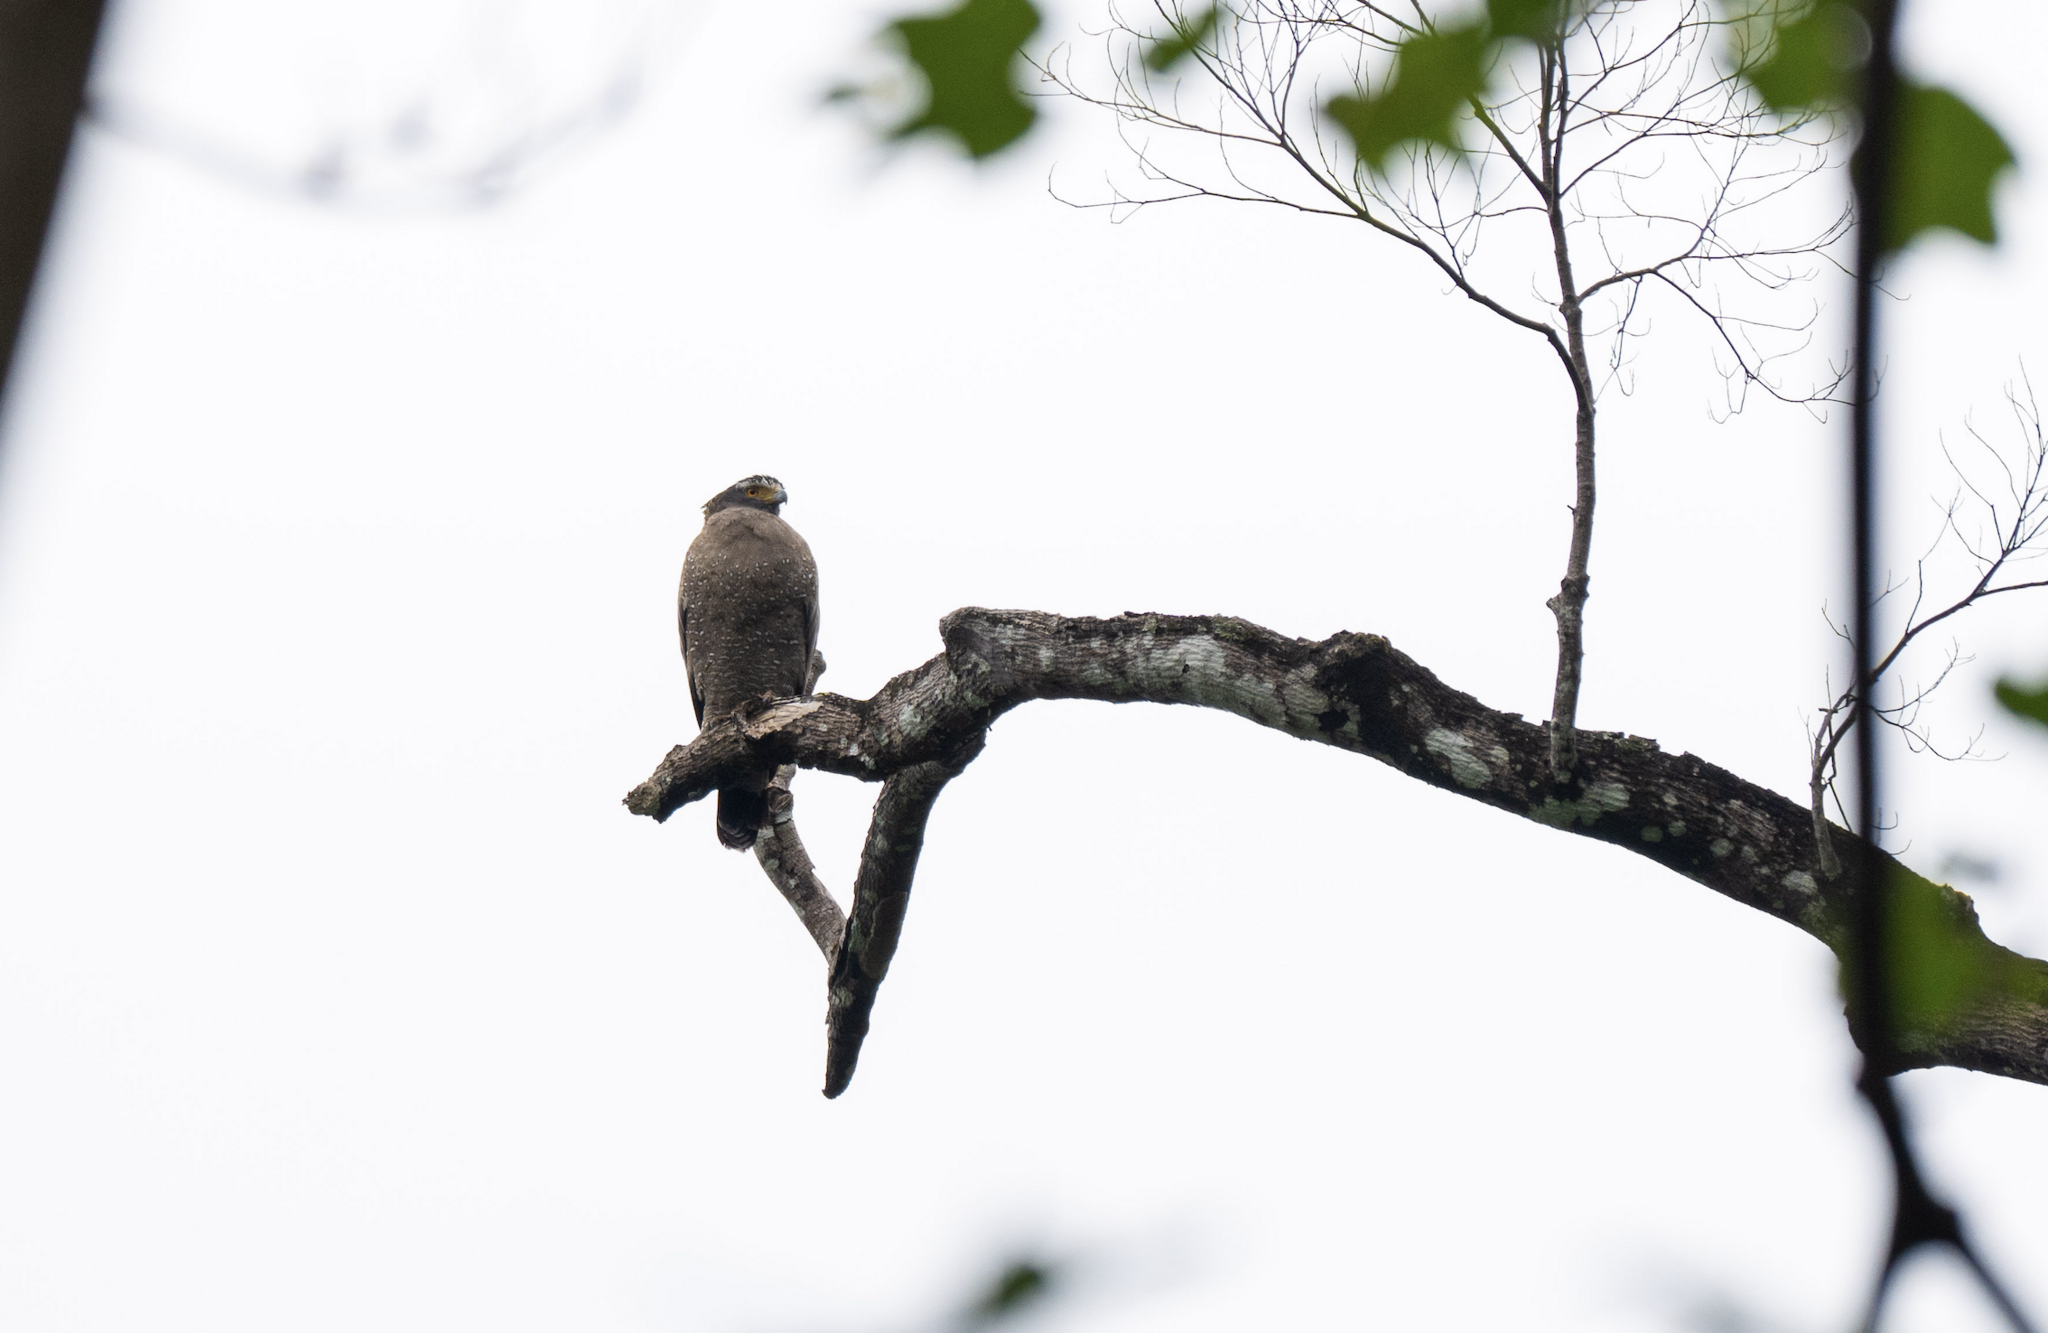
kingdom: Animalia
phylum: Chordata
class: Aves
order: Accipitriformes
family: Accipitridae
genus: Spilornis
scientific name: Spilornis cheela
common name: Crested serpent eagle
